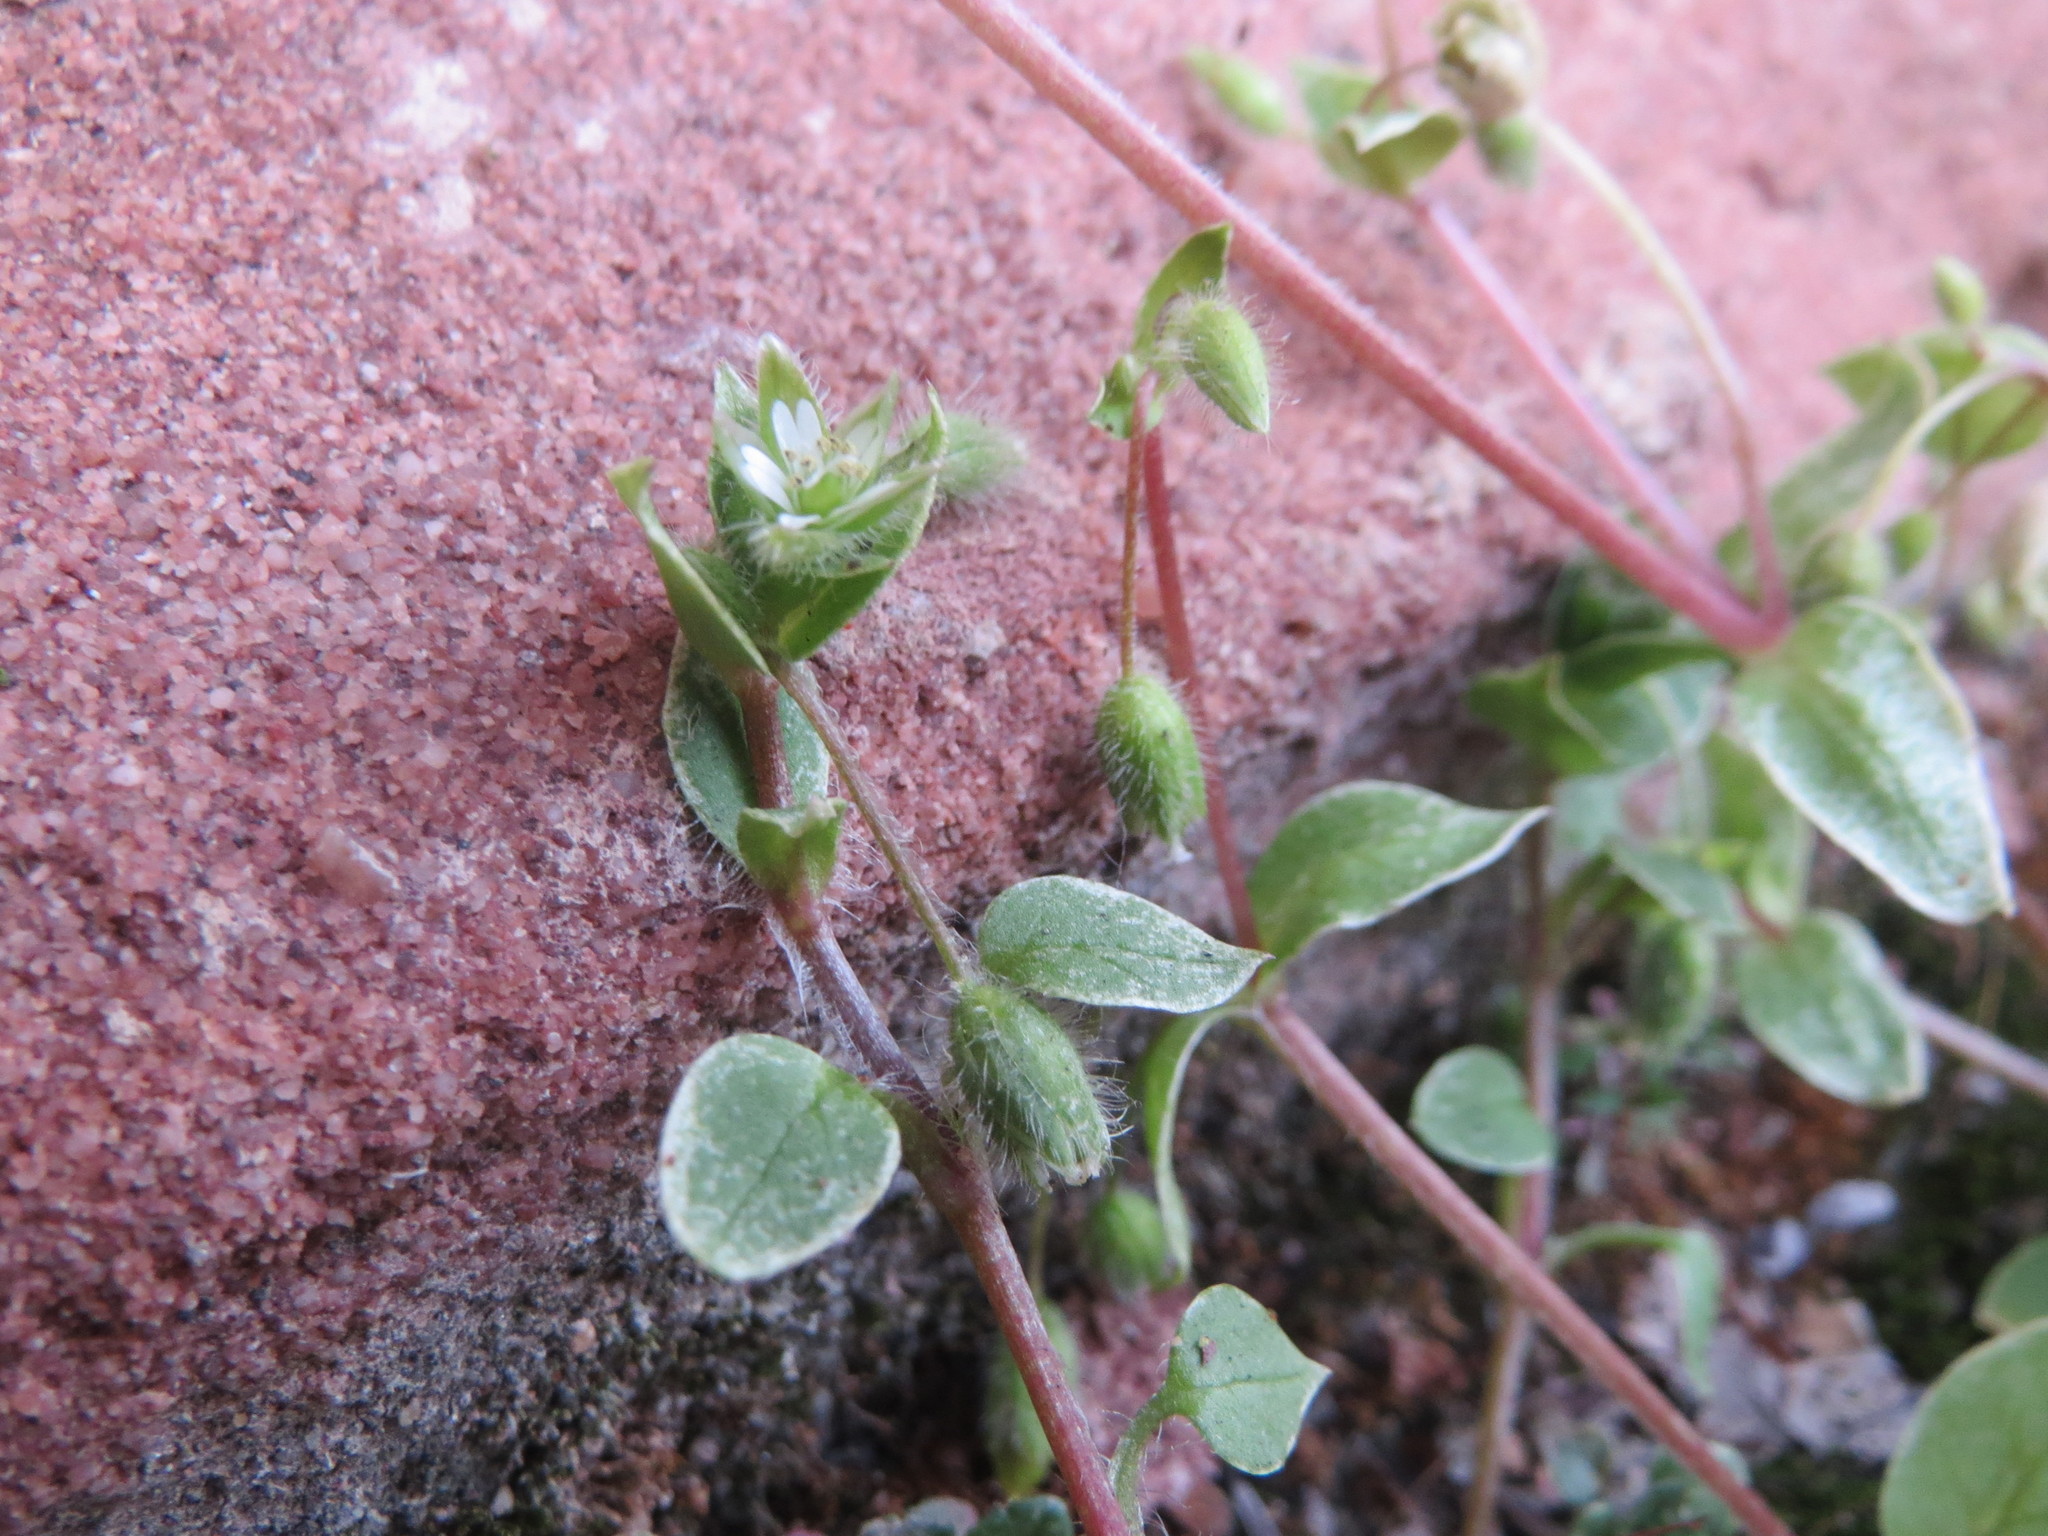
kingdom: Plantae
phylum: Tracheophyta
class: Magnoliopsida
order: Caryophyllales
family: Caryophyllaceae
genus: Stellaria
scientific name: Stellaria media
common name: Common chickweed
